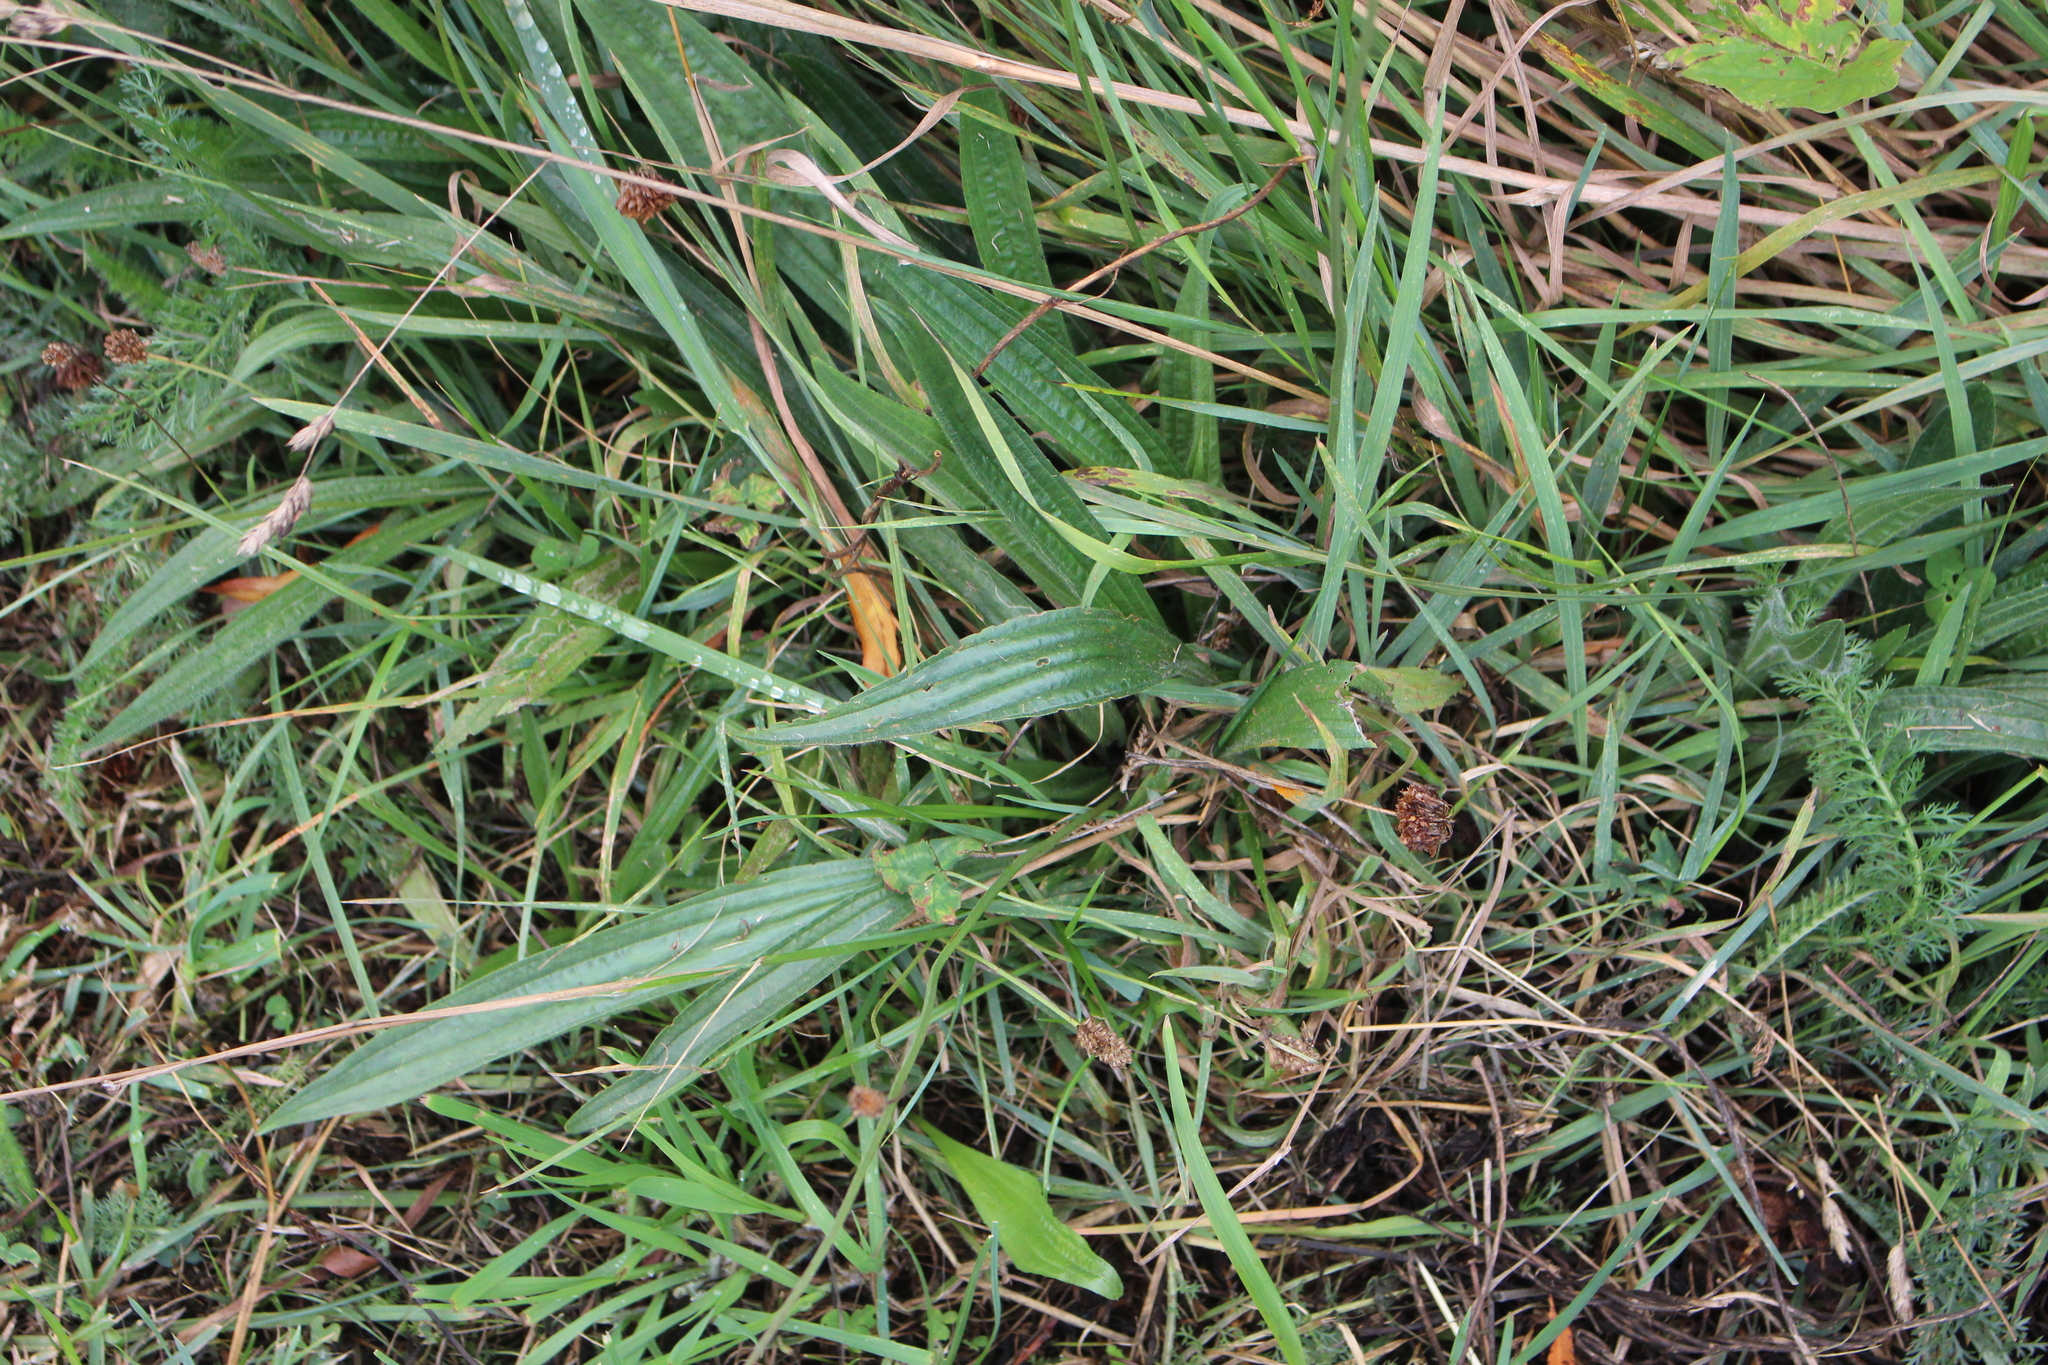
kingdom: Plantae
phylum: Tracheophyta
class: Magnoliopsida
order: Lamiales
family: Plantaginaceae
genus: Plantago
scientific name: Plantago lanceolata
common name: Ribwort plantain
